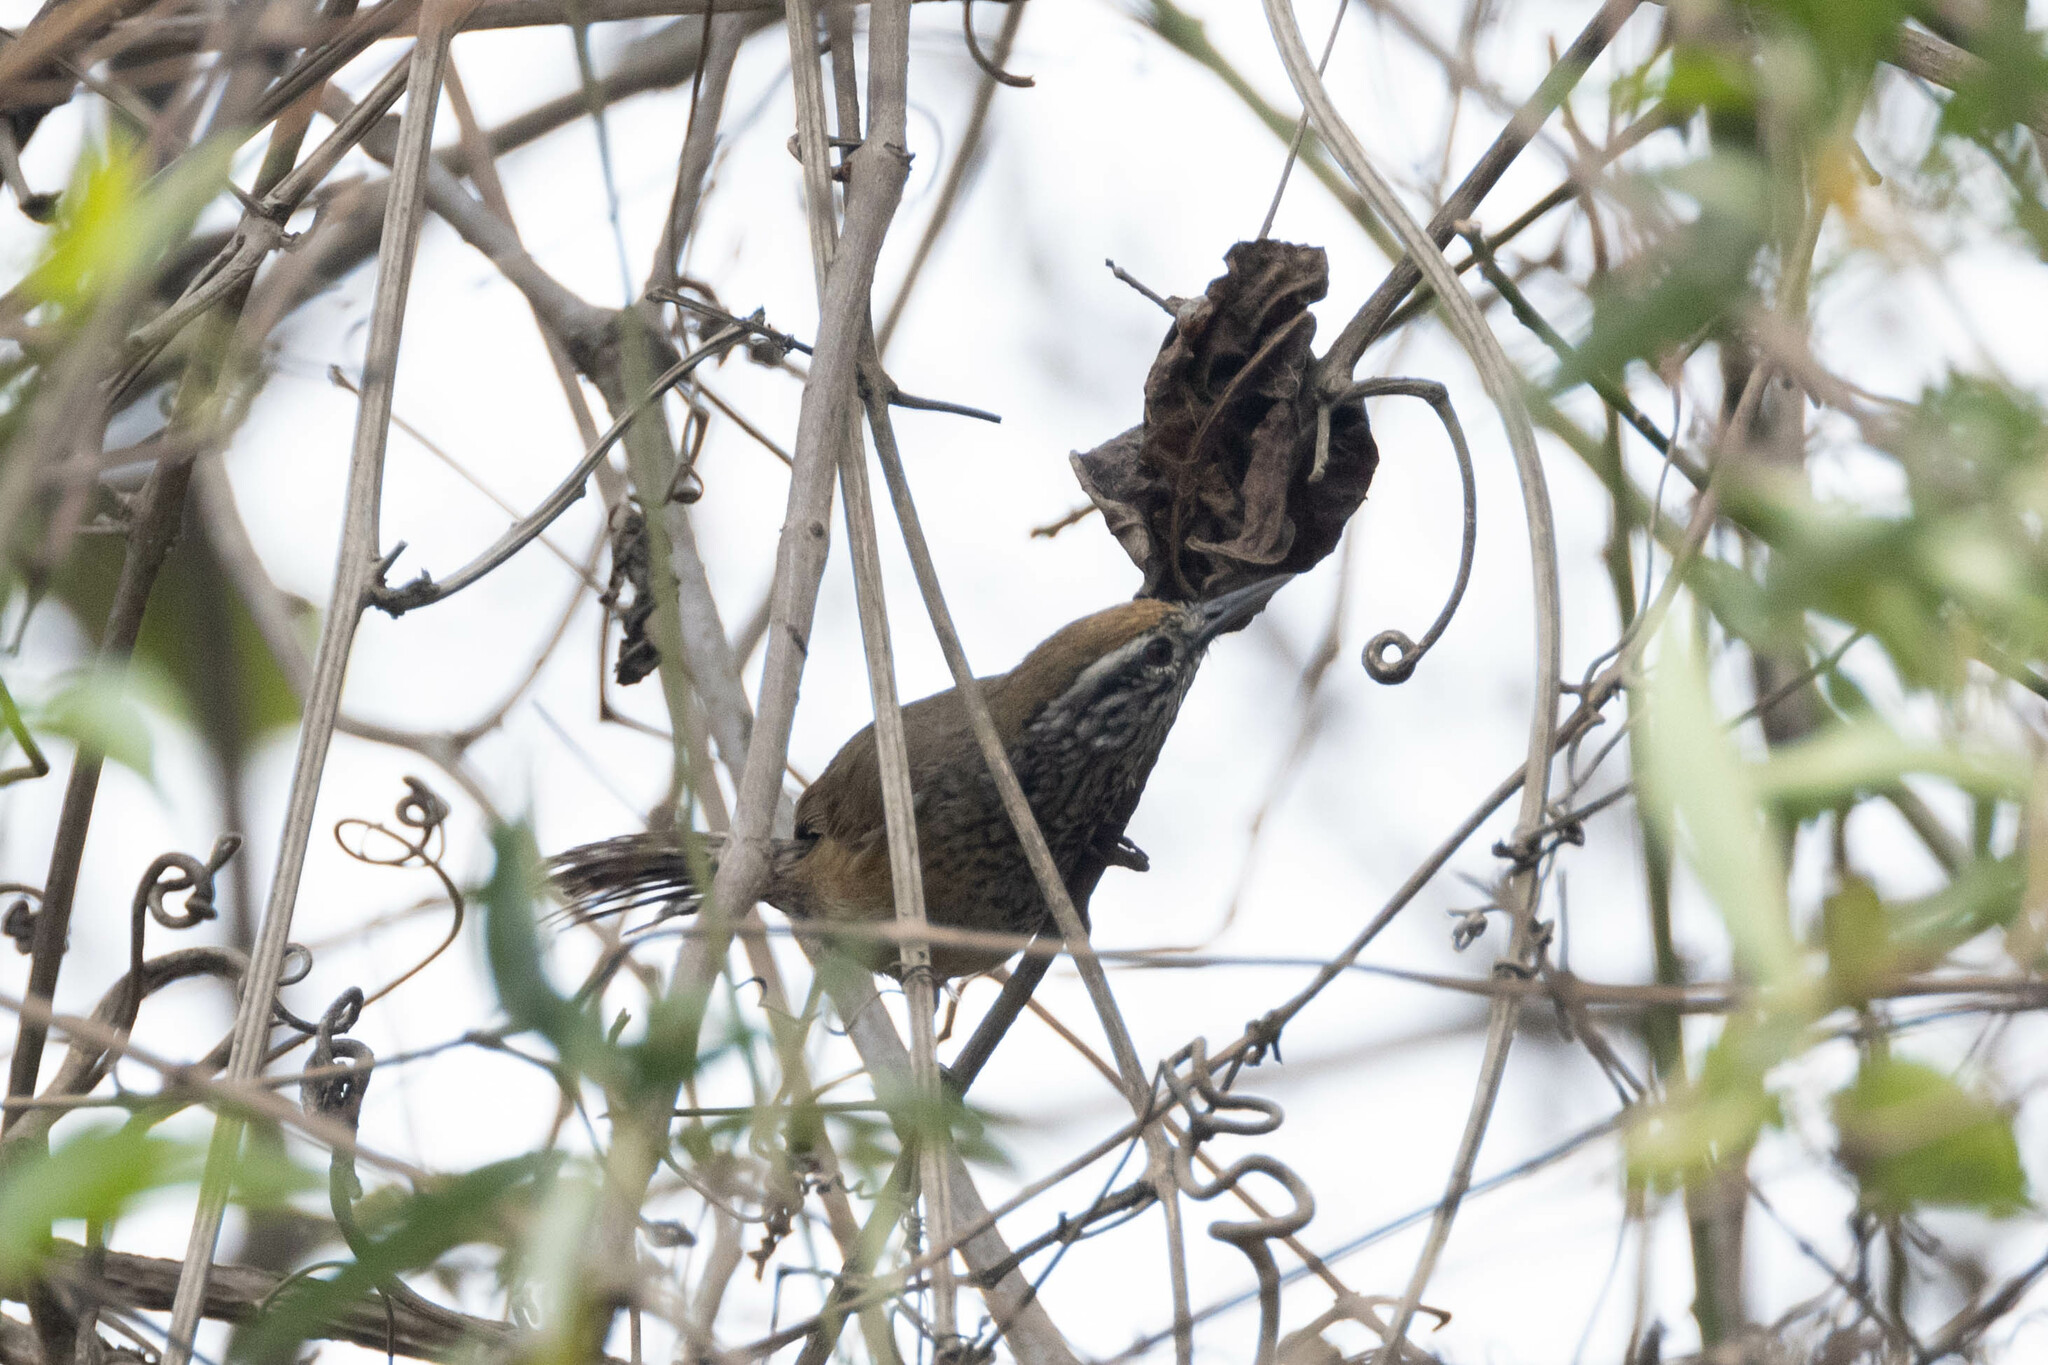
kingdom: Animalia
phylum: Chordata
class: Aves
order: Passeriformes
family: Troglodytidae
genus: Pheugopedius
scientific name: Pheugopedius sclateri
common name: Speckle-breasted wren
